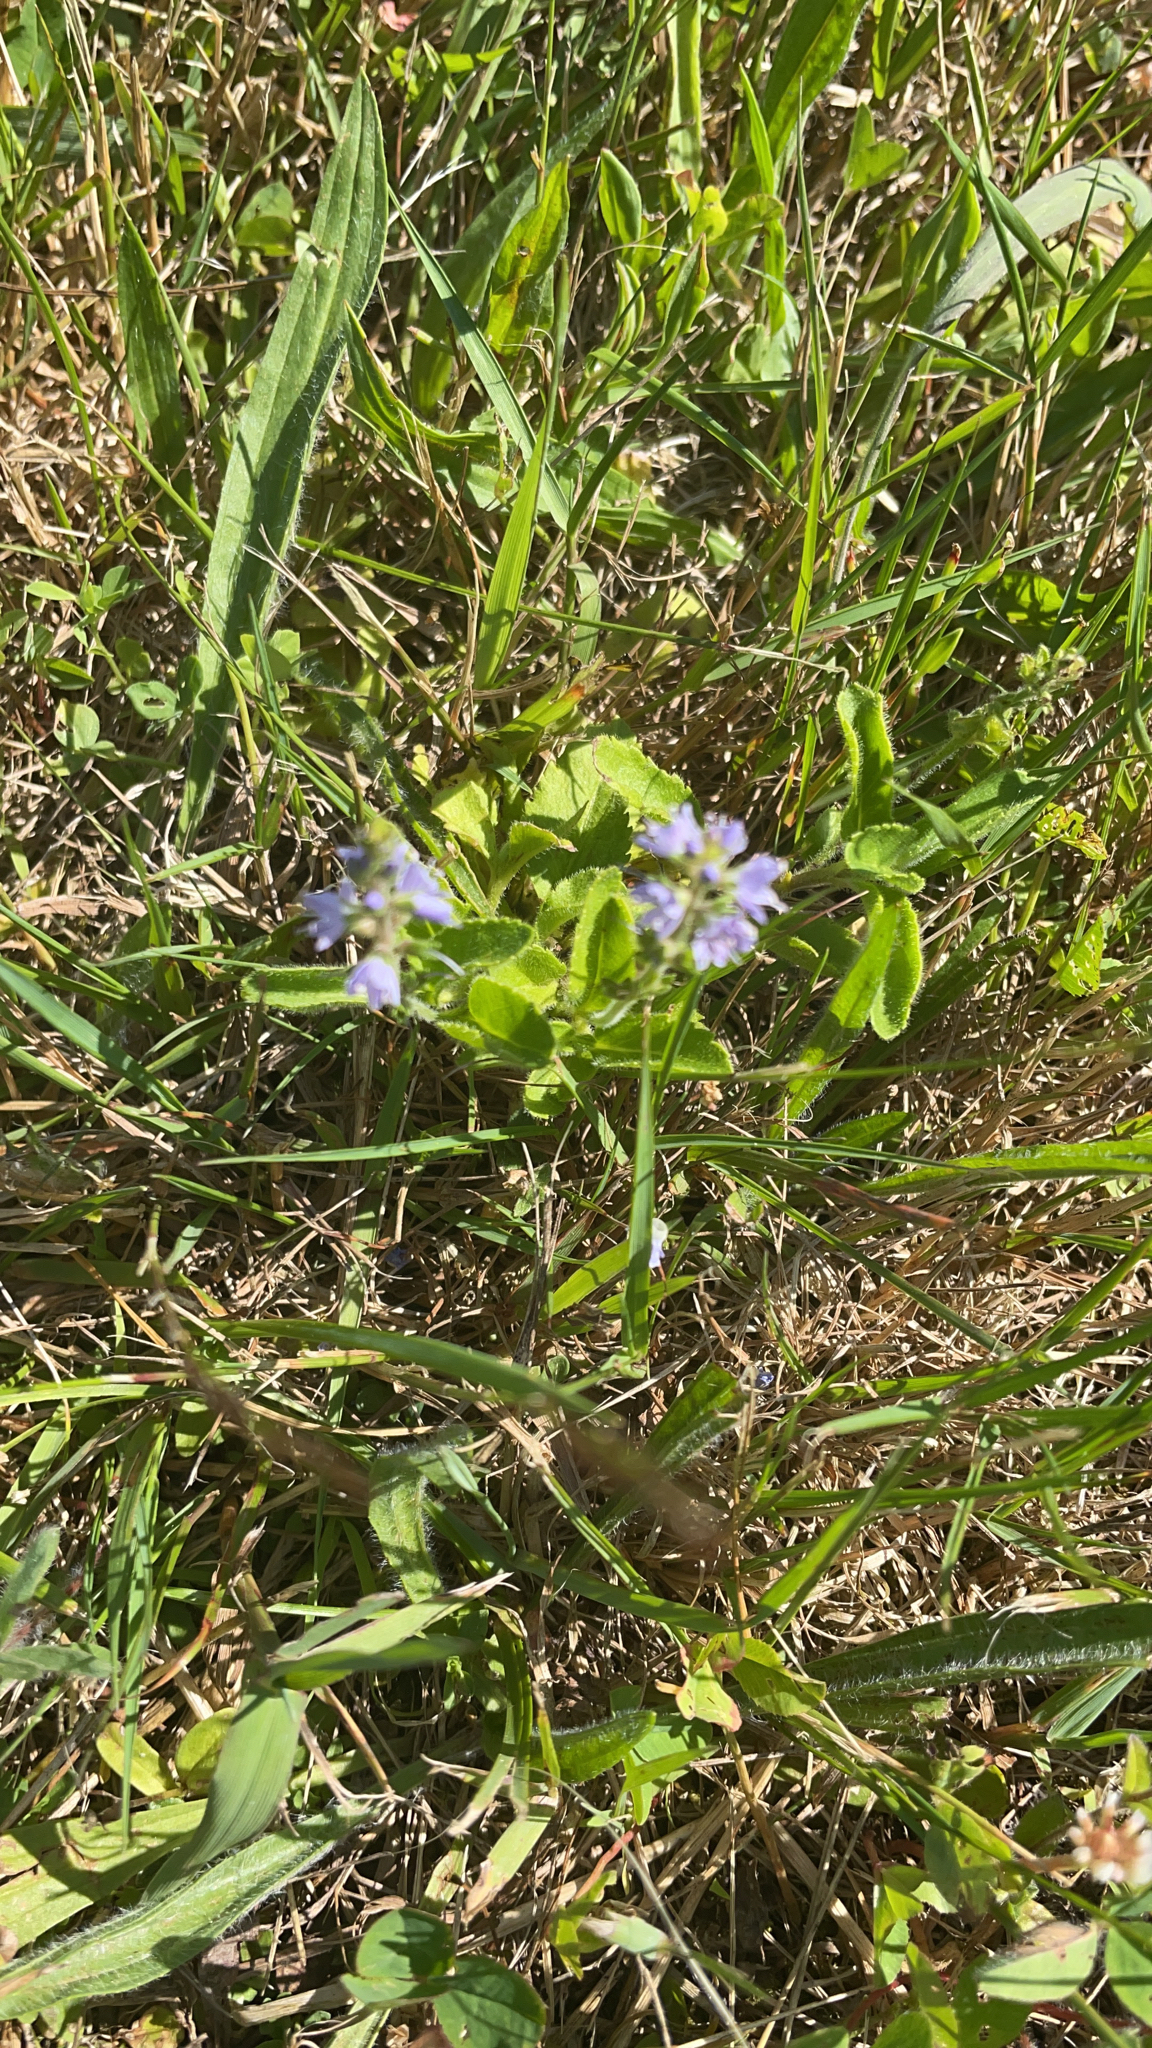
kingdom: Plantae
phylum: Tracheophyta
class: Magnoliopsida
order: Lamiales
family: Plantaginaceae
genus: Veronica
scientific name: Veronica officinalis
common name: Common speedwell
